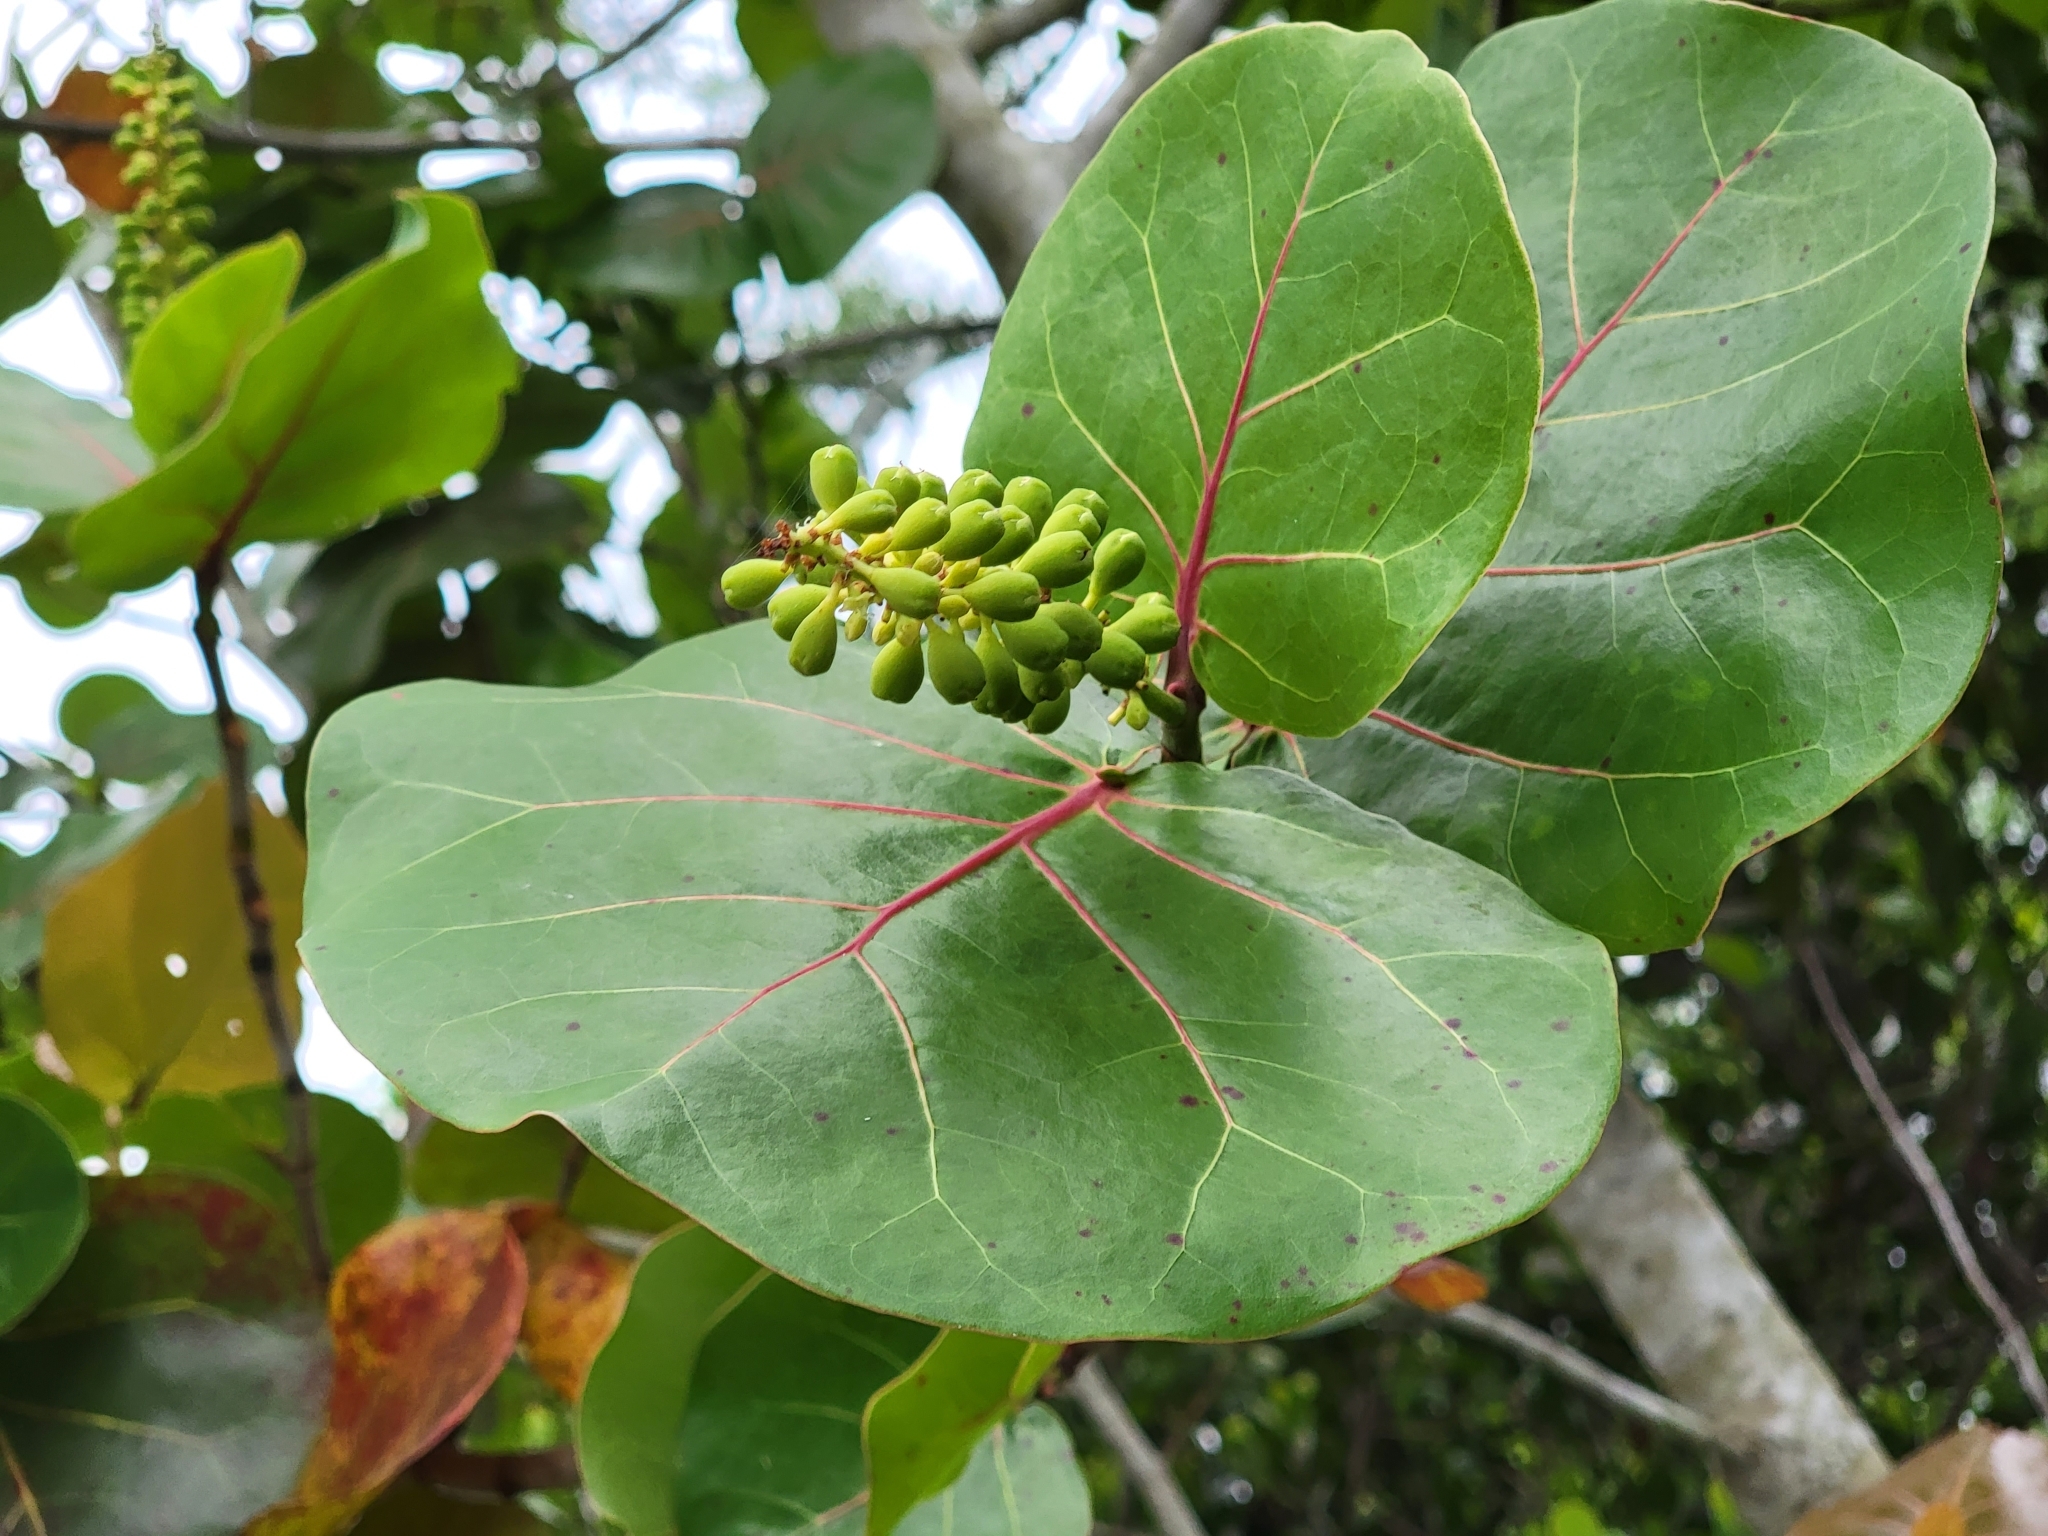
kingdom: Plantae
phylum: Tracheophyta
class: Magnoliopsida
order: Caryophyllales
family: Polygonaceae
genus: Coccoloba
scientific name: Coccoloba uvifera
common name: Seagrape
